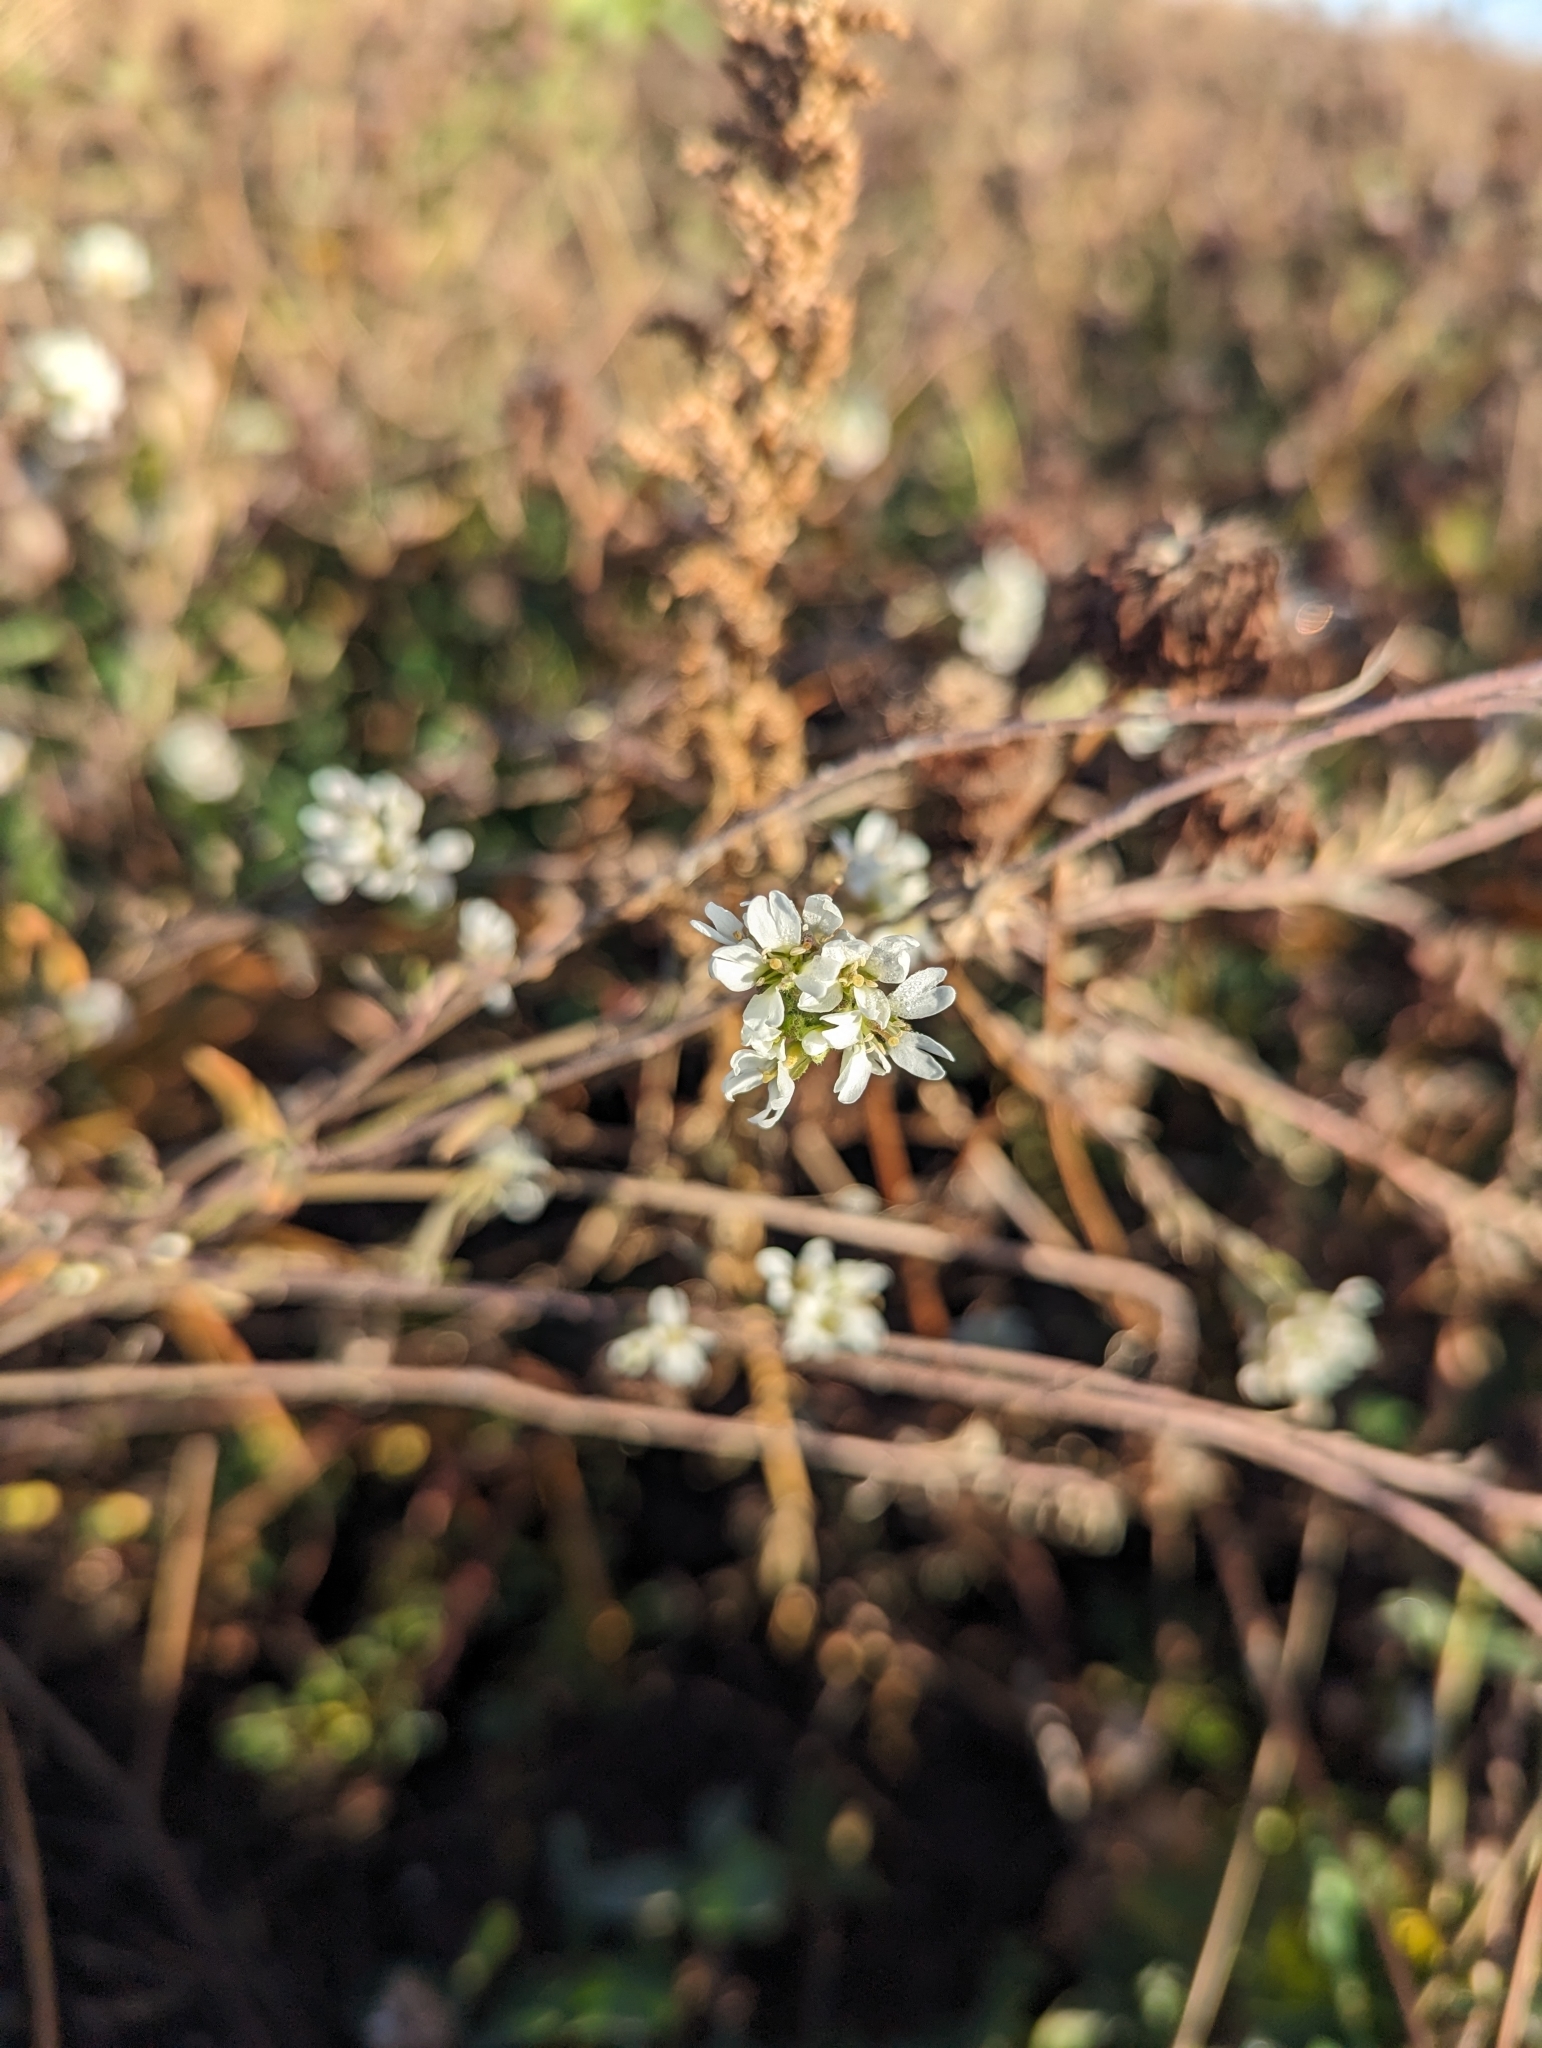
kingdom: Plantae
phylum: Tracheophyta
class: Magnoliopsida
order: Brassicales
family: Brassicaceae
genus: Berteroa
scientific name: Berteroa incana
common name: Hoary alison
